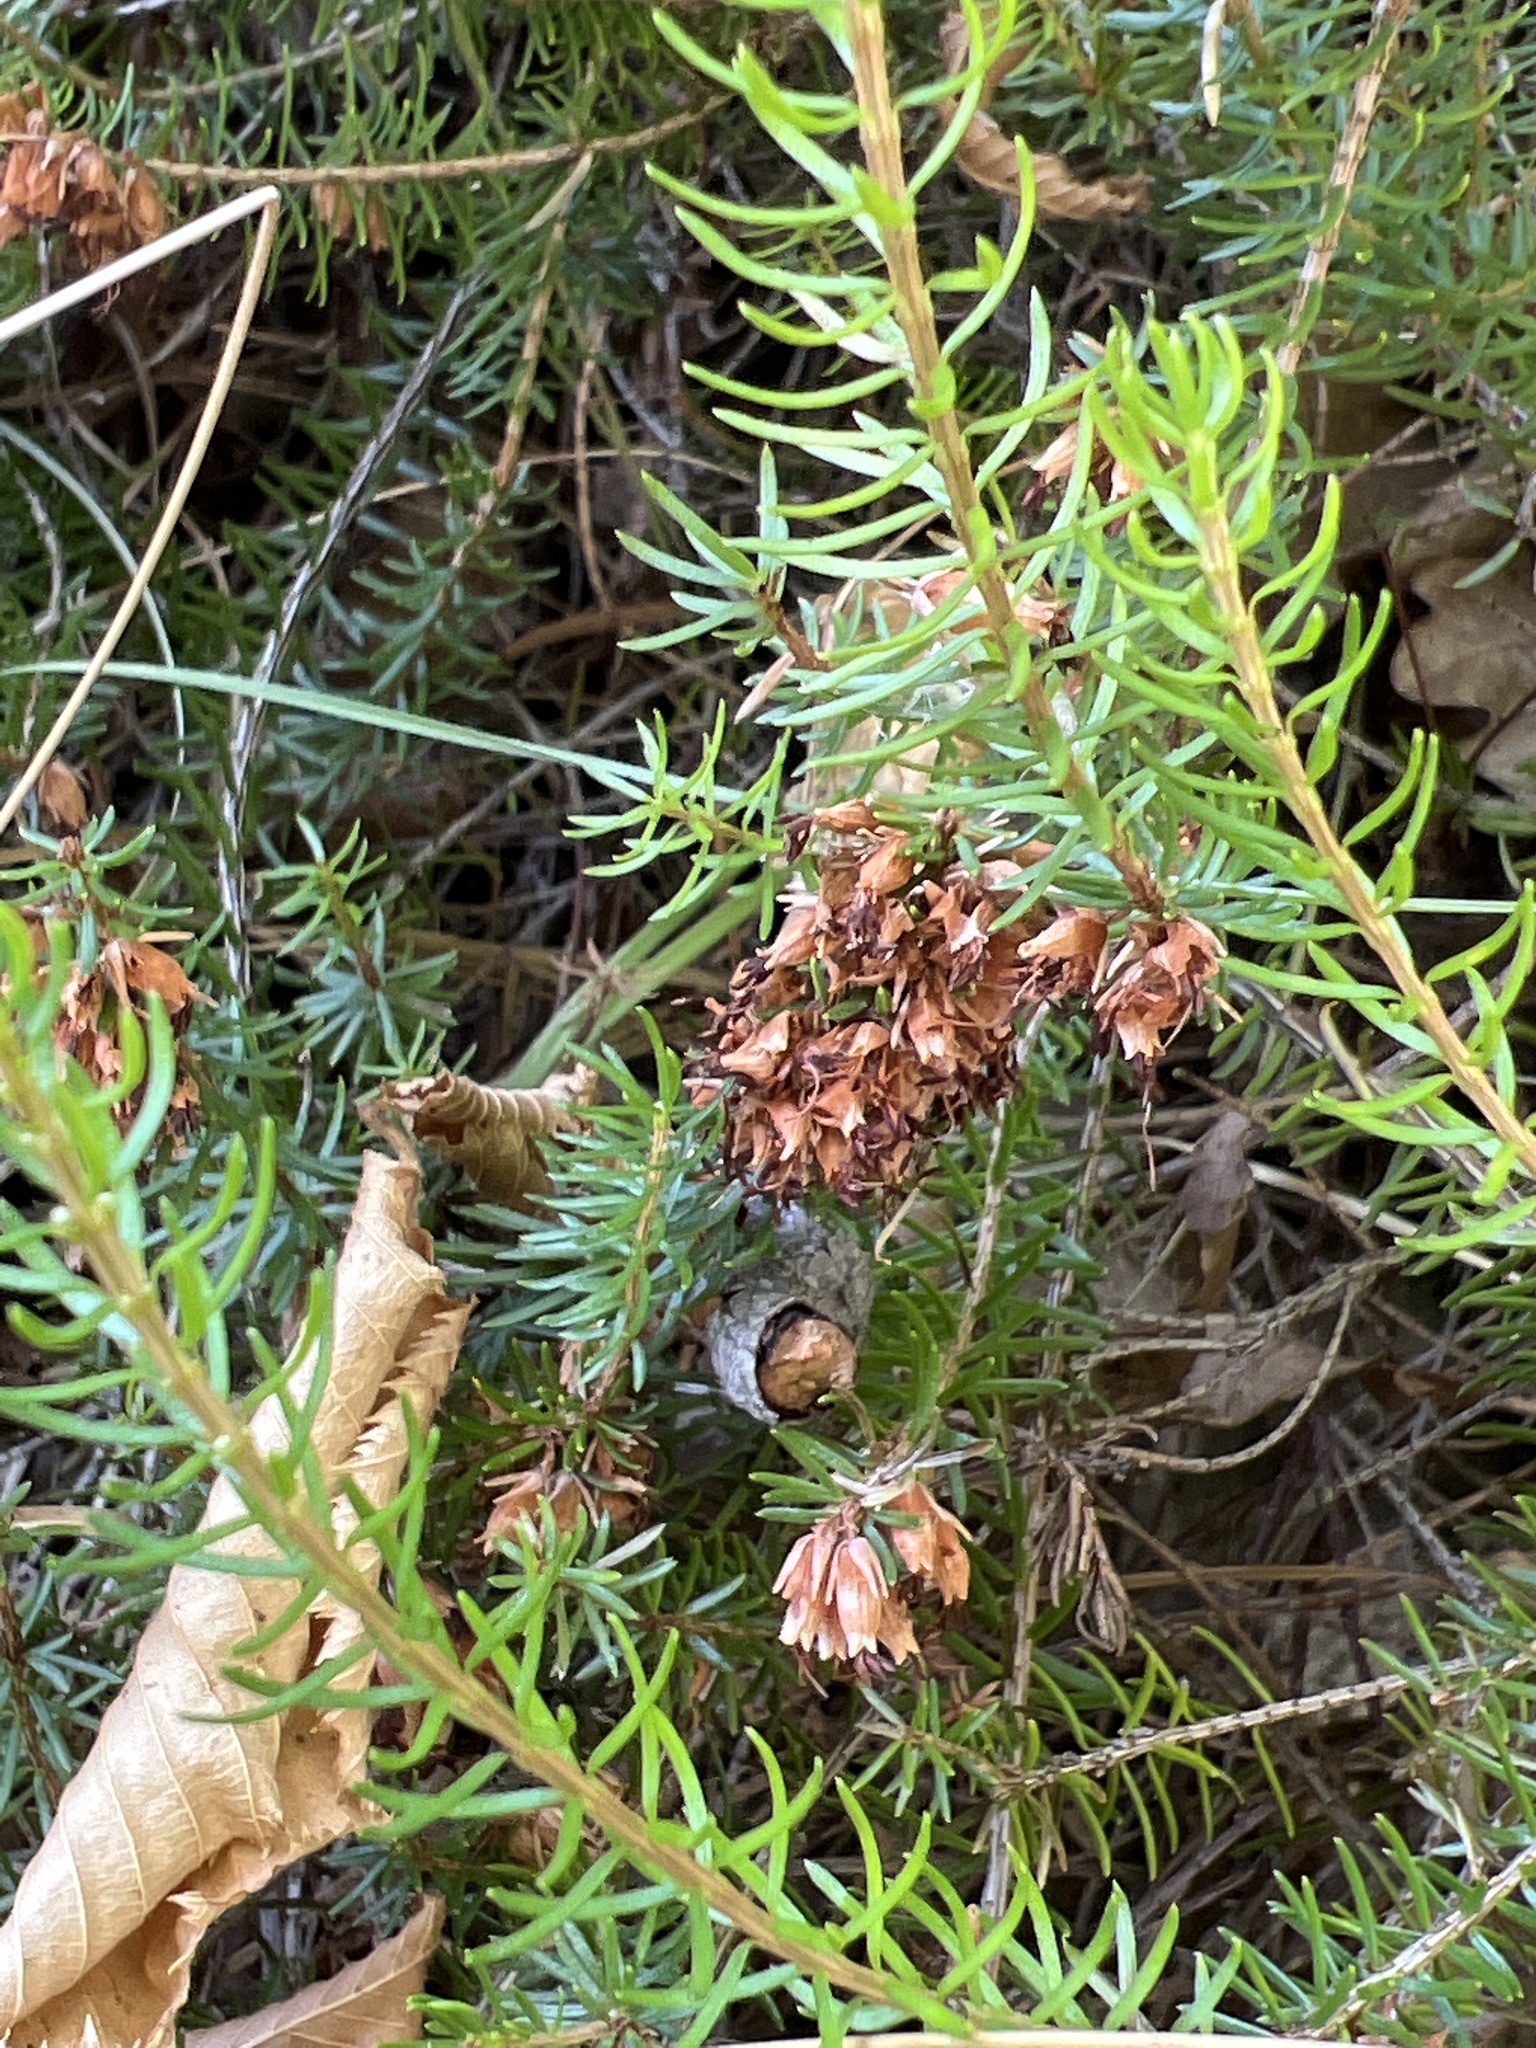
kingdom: Plantae
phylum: Tracheophyta
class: Magnoliopsida
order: Ericales
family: Ericaceae
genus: Erica
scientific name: Erica carnea
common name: Winter heath
